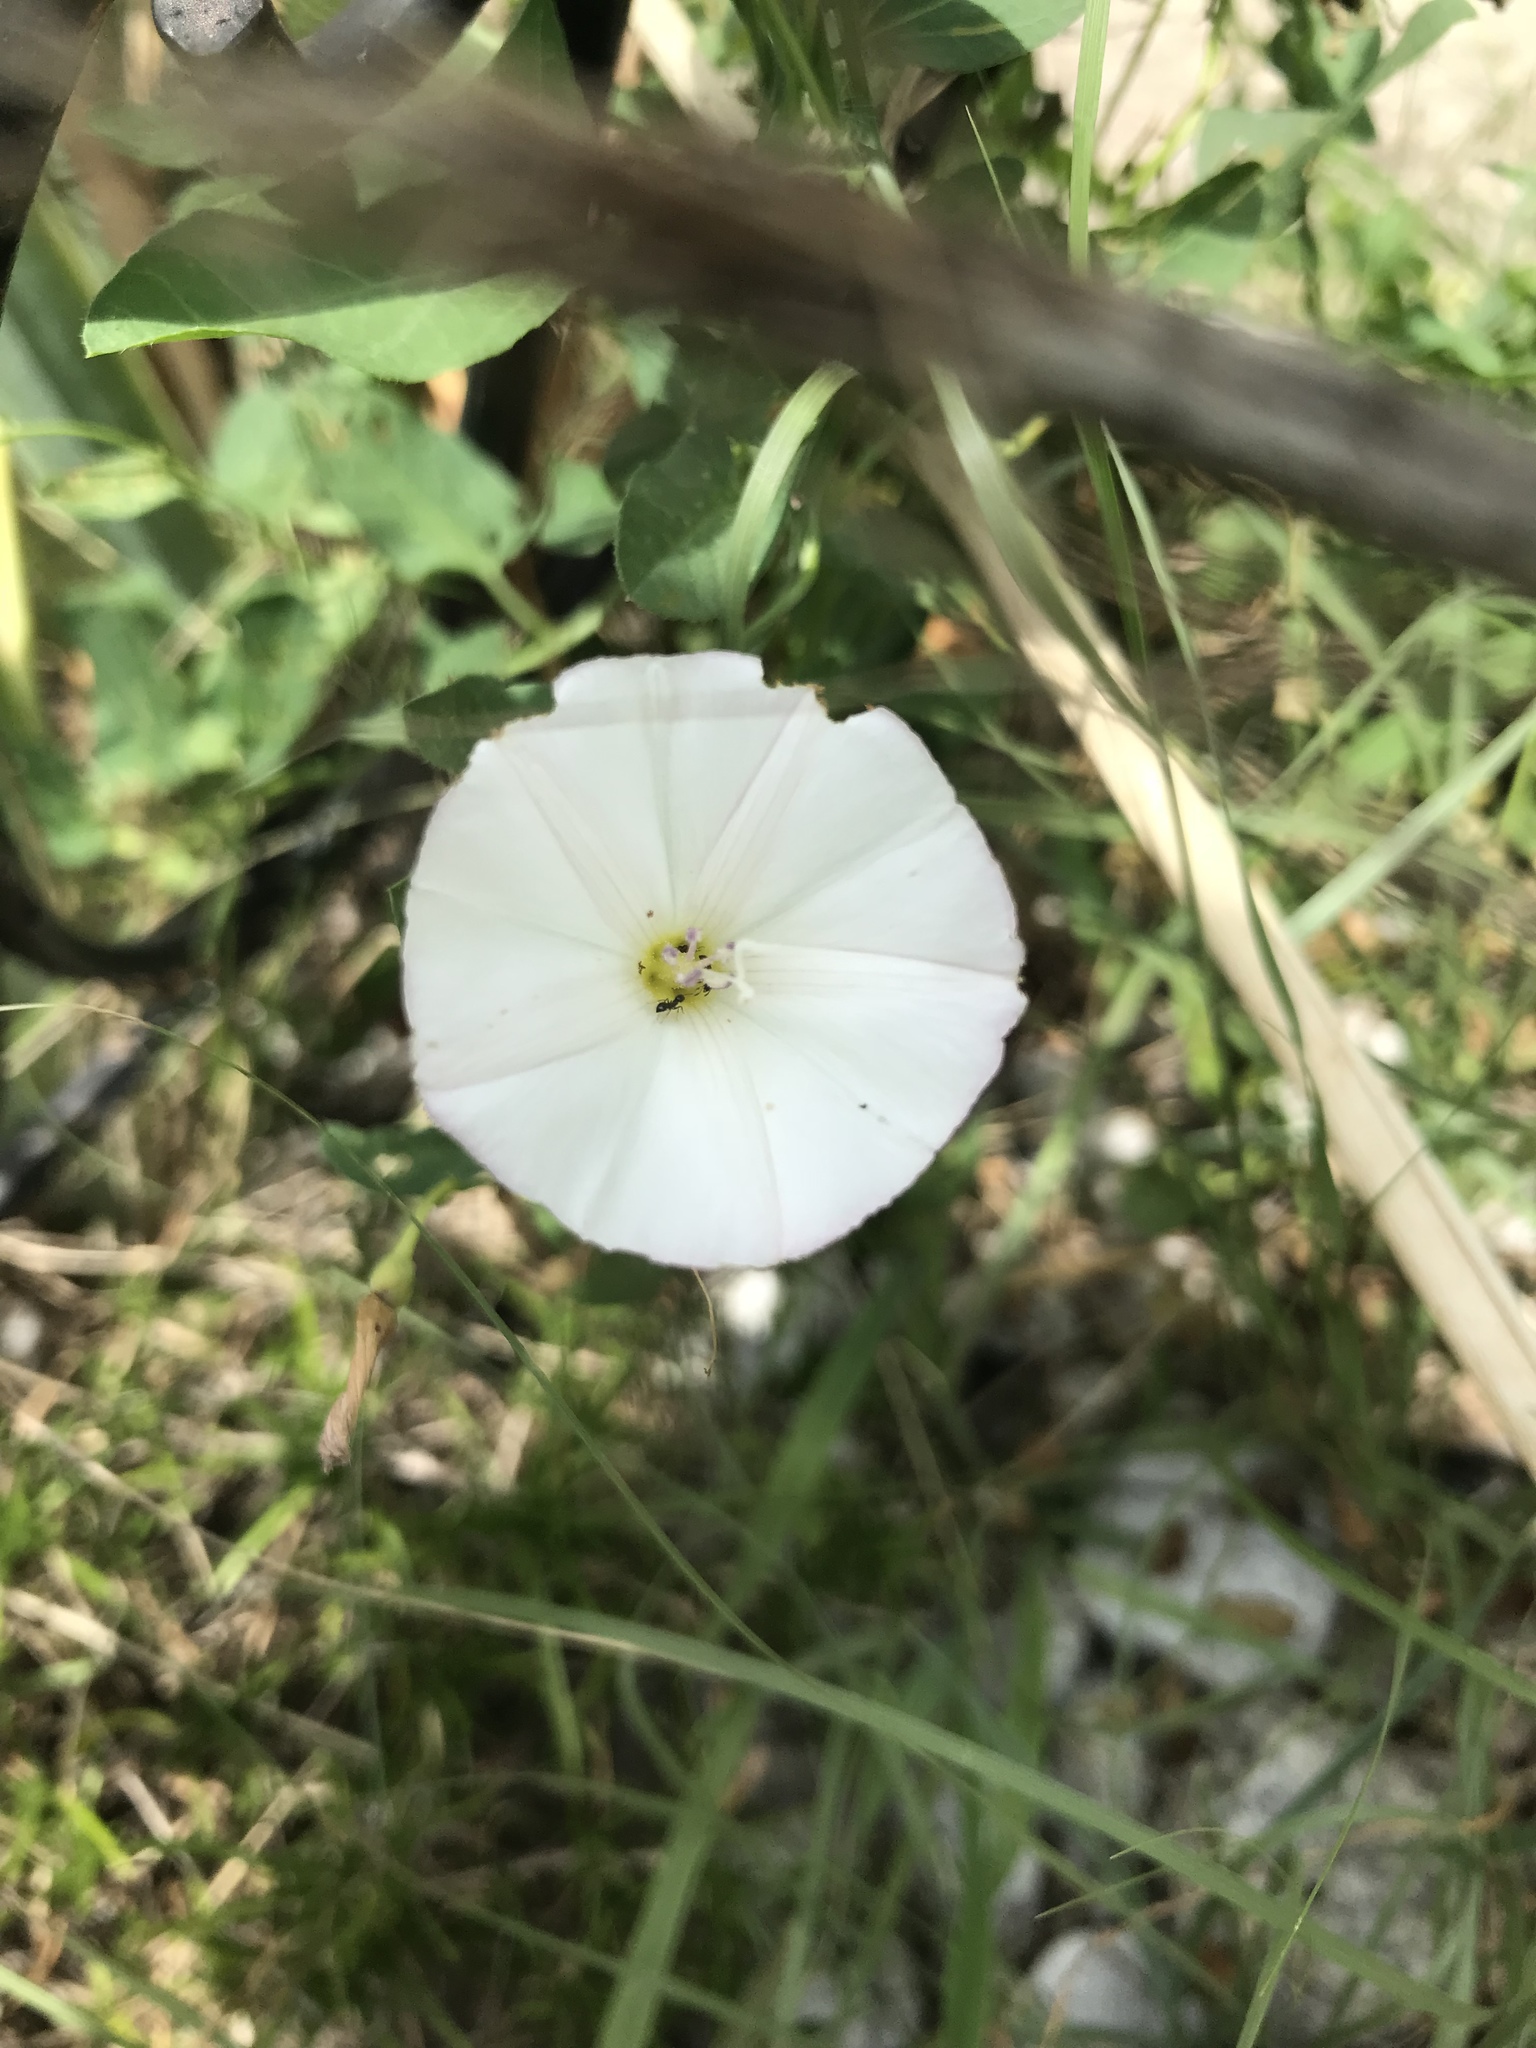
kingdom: Plantae
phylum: Tracheophyta
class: Magnoliopsida
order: Solanales
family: Convolvulaceae
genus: Convolvulus
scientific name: Convolvulus arvensis
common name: Field bindweed
